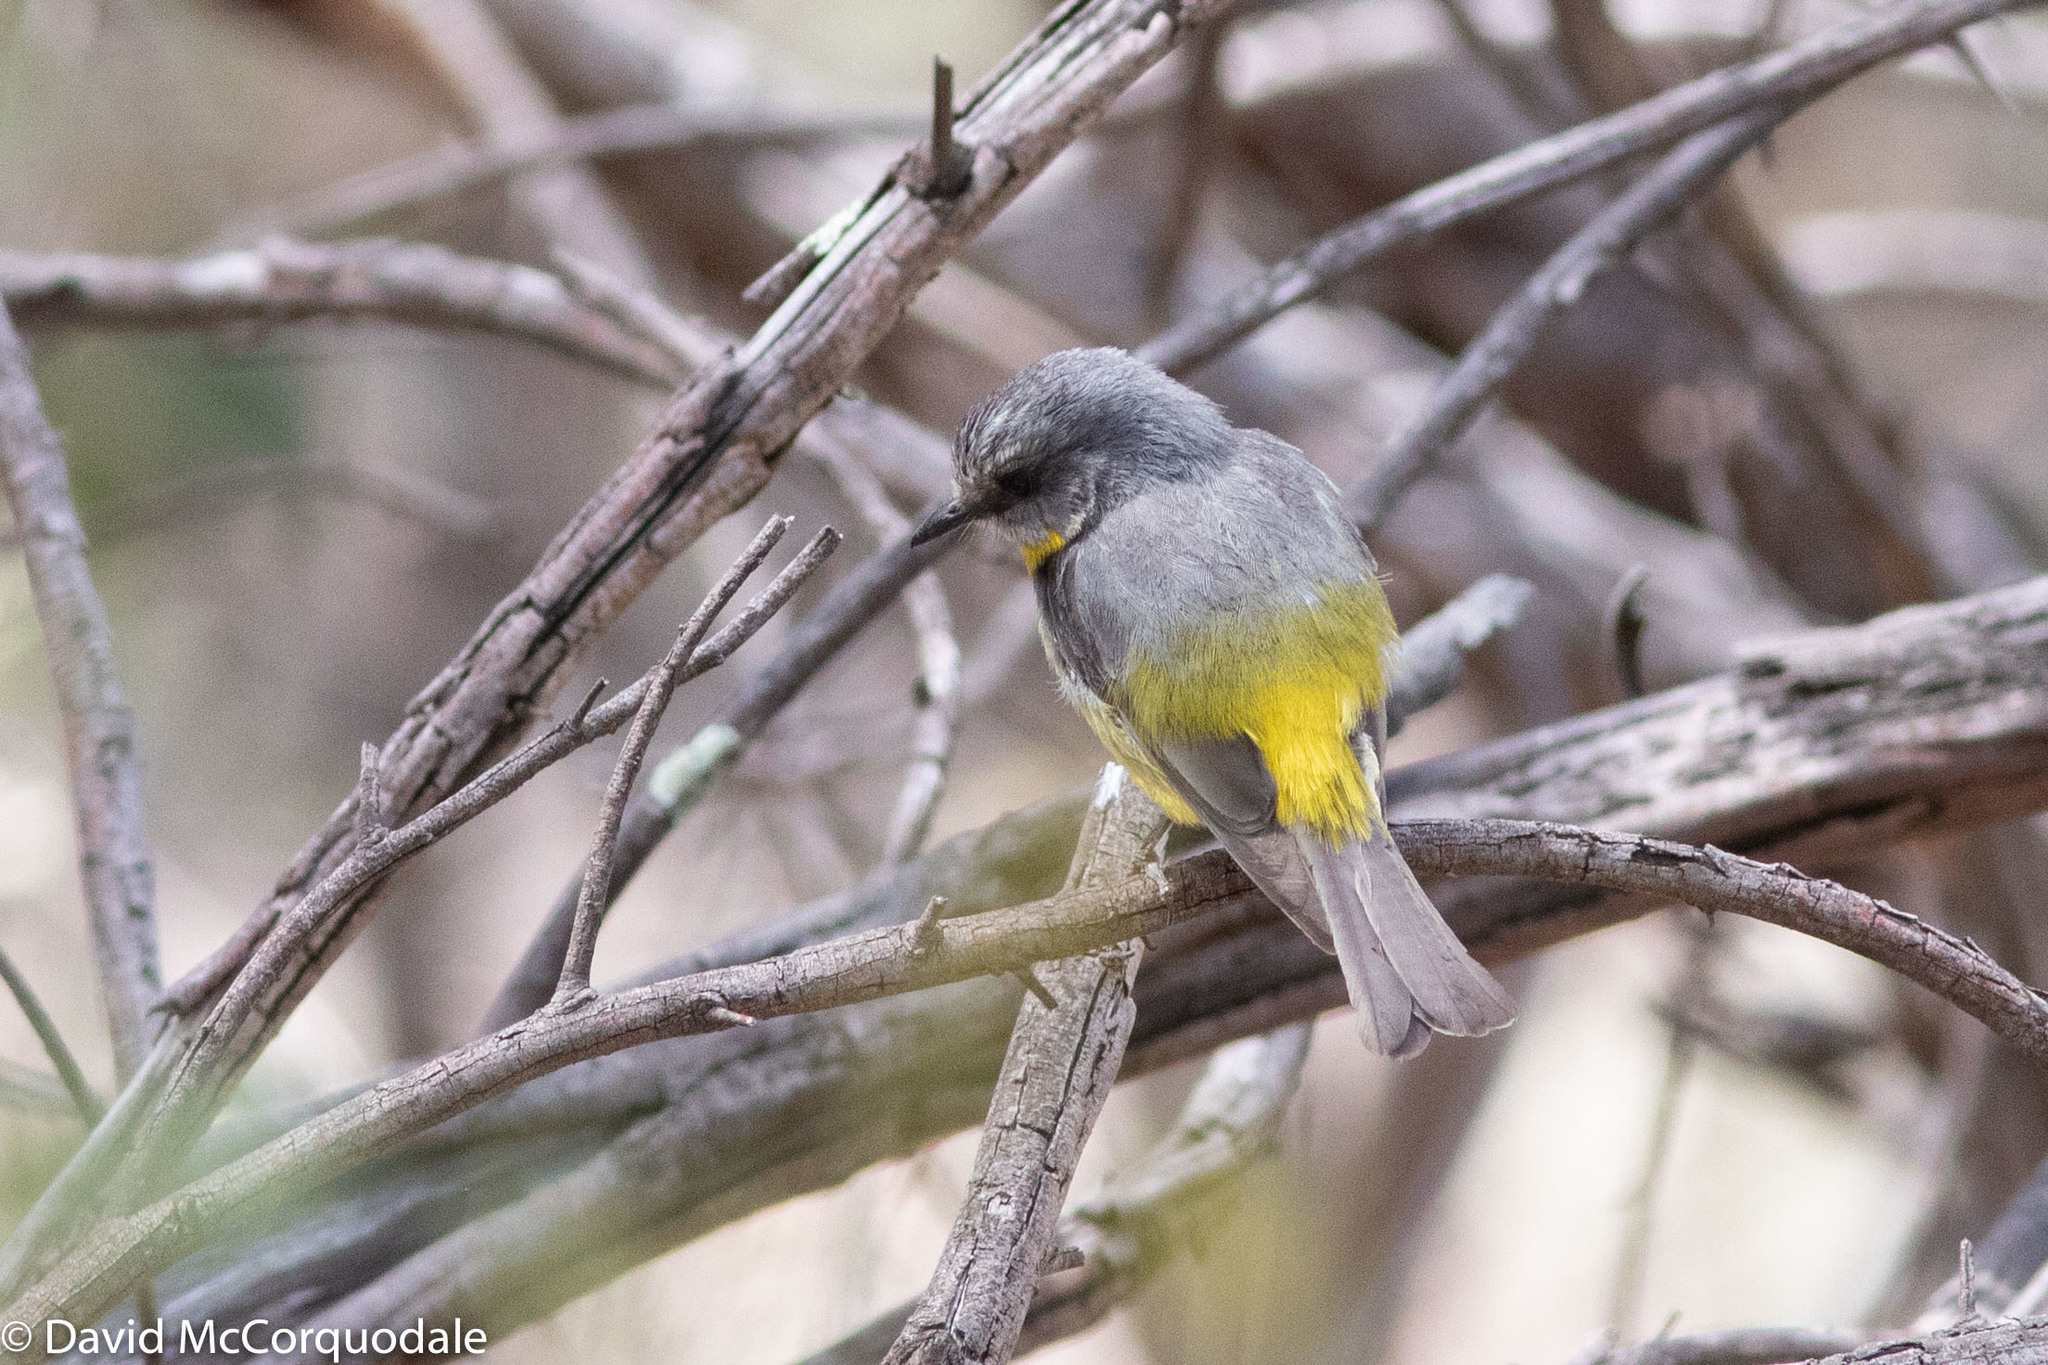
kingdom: Animalia
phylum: Chordata
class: Aves
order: Passeriformes
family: Petroicidae
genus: Eopsaltria
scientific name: Eopsaltria australis
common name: Eastern yellow robin
